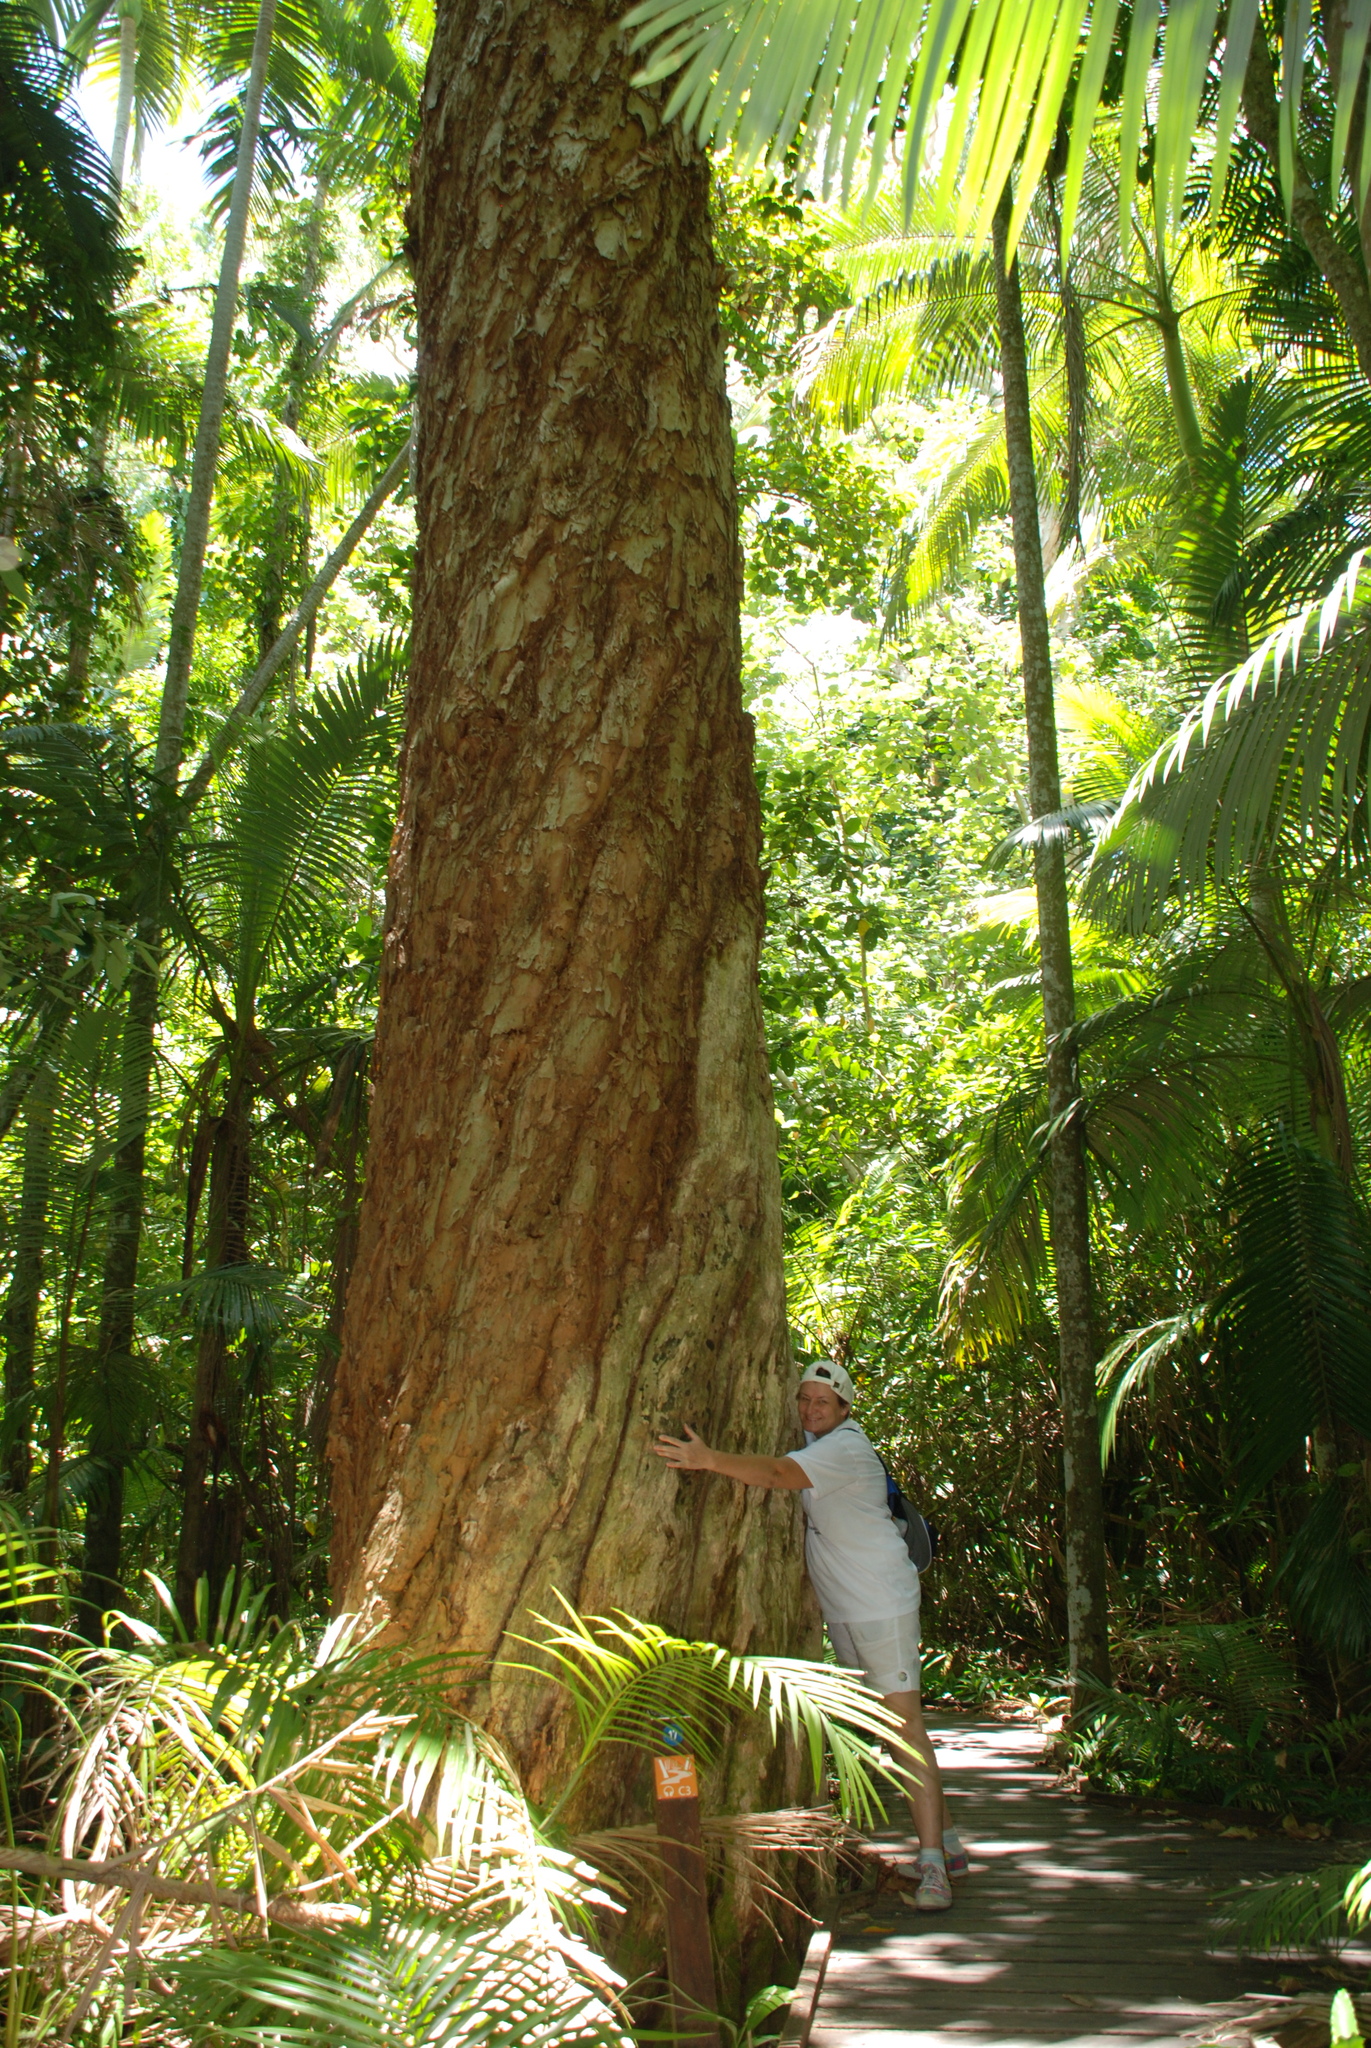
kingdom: Plantae
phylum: Tracheophyta
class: Magnoliopsida
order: Myrtales
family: Myrtaceae
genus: Melaleuca
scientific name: Melaleuca leucadendra
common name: Weeping paperbark
